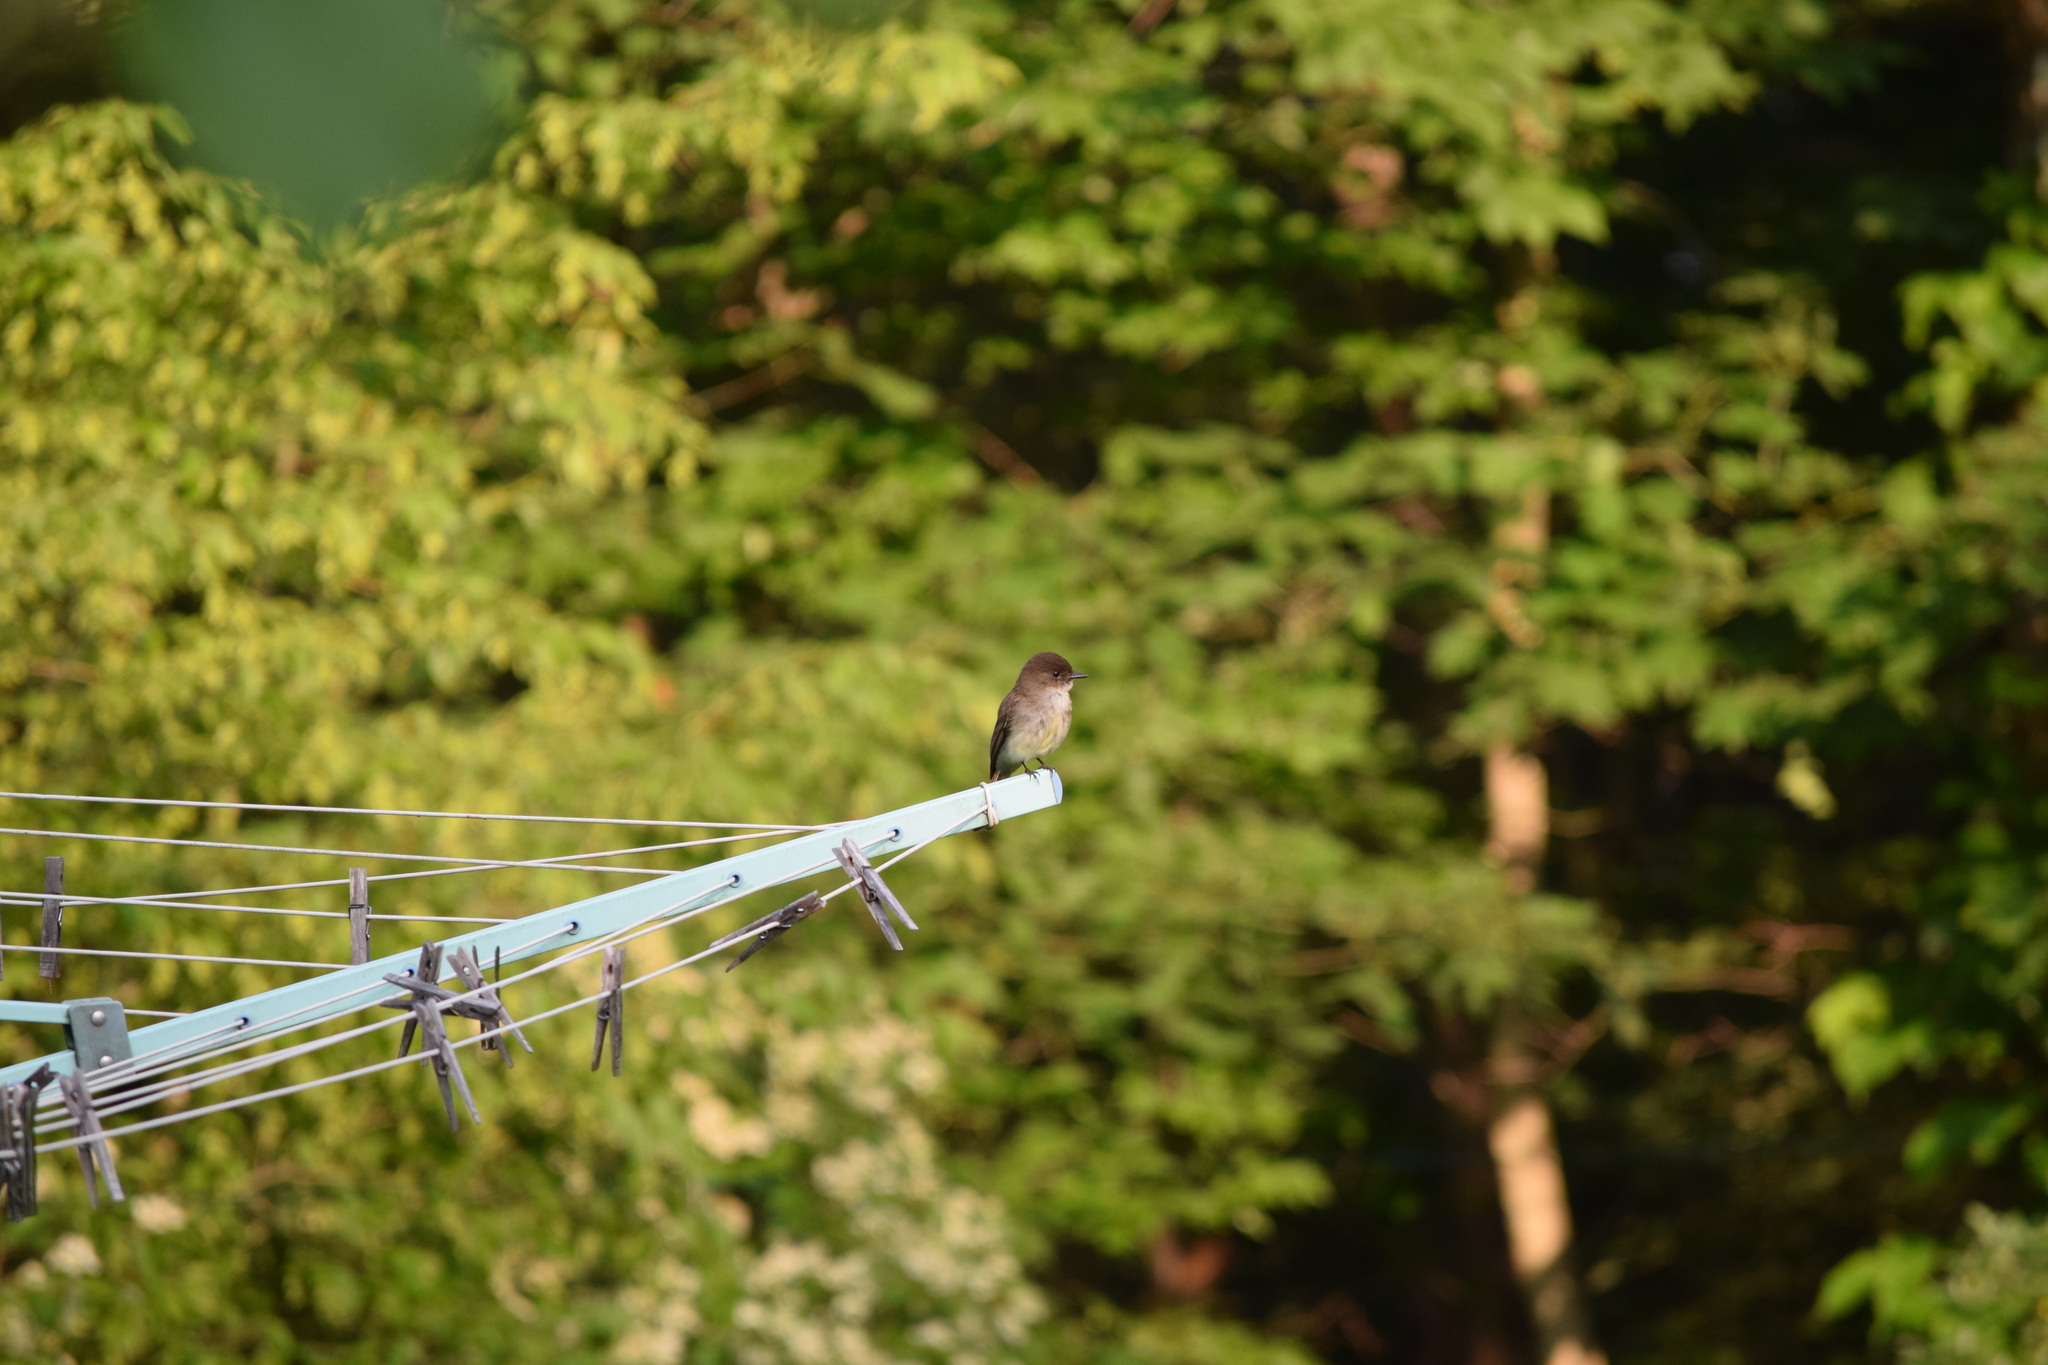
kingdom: Animalia
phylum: Chordata
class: Aves
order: Passeriformes
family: Tyrannidae
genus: Sayornis
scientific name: Sayornis phoebe
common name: Eastern phoebe
